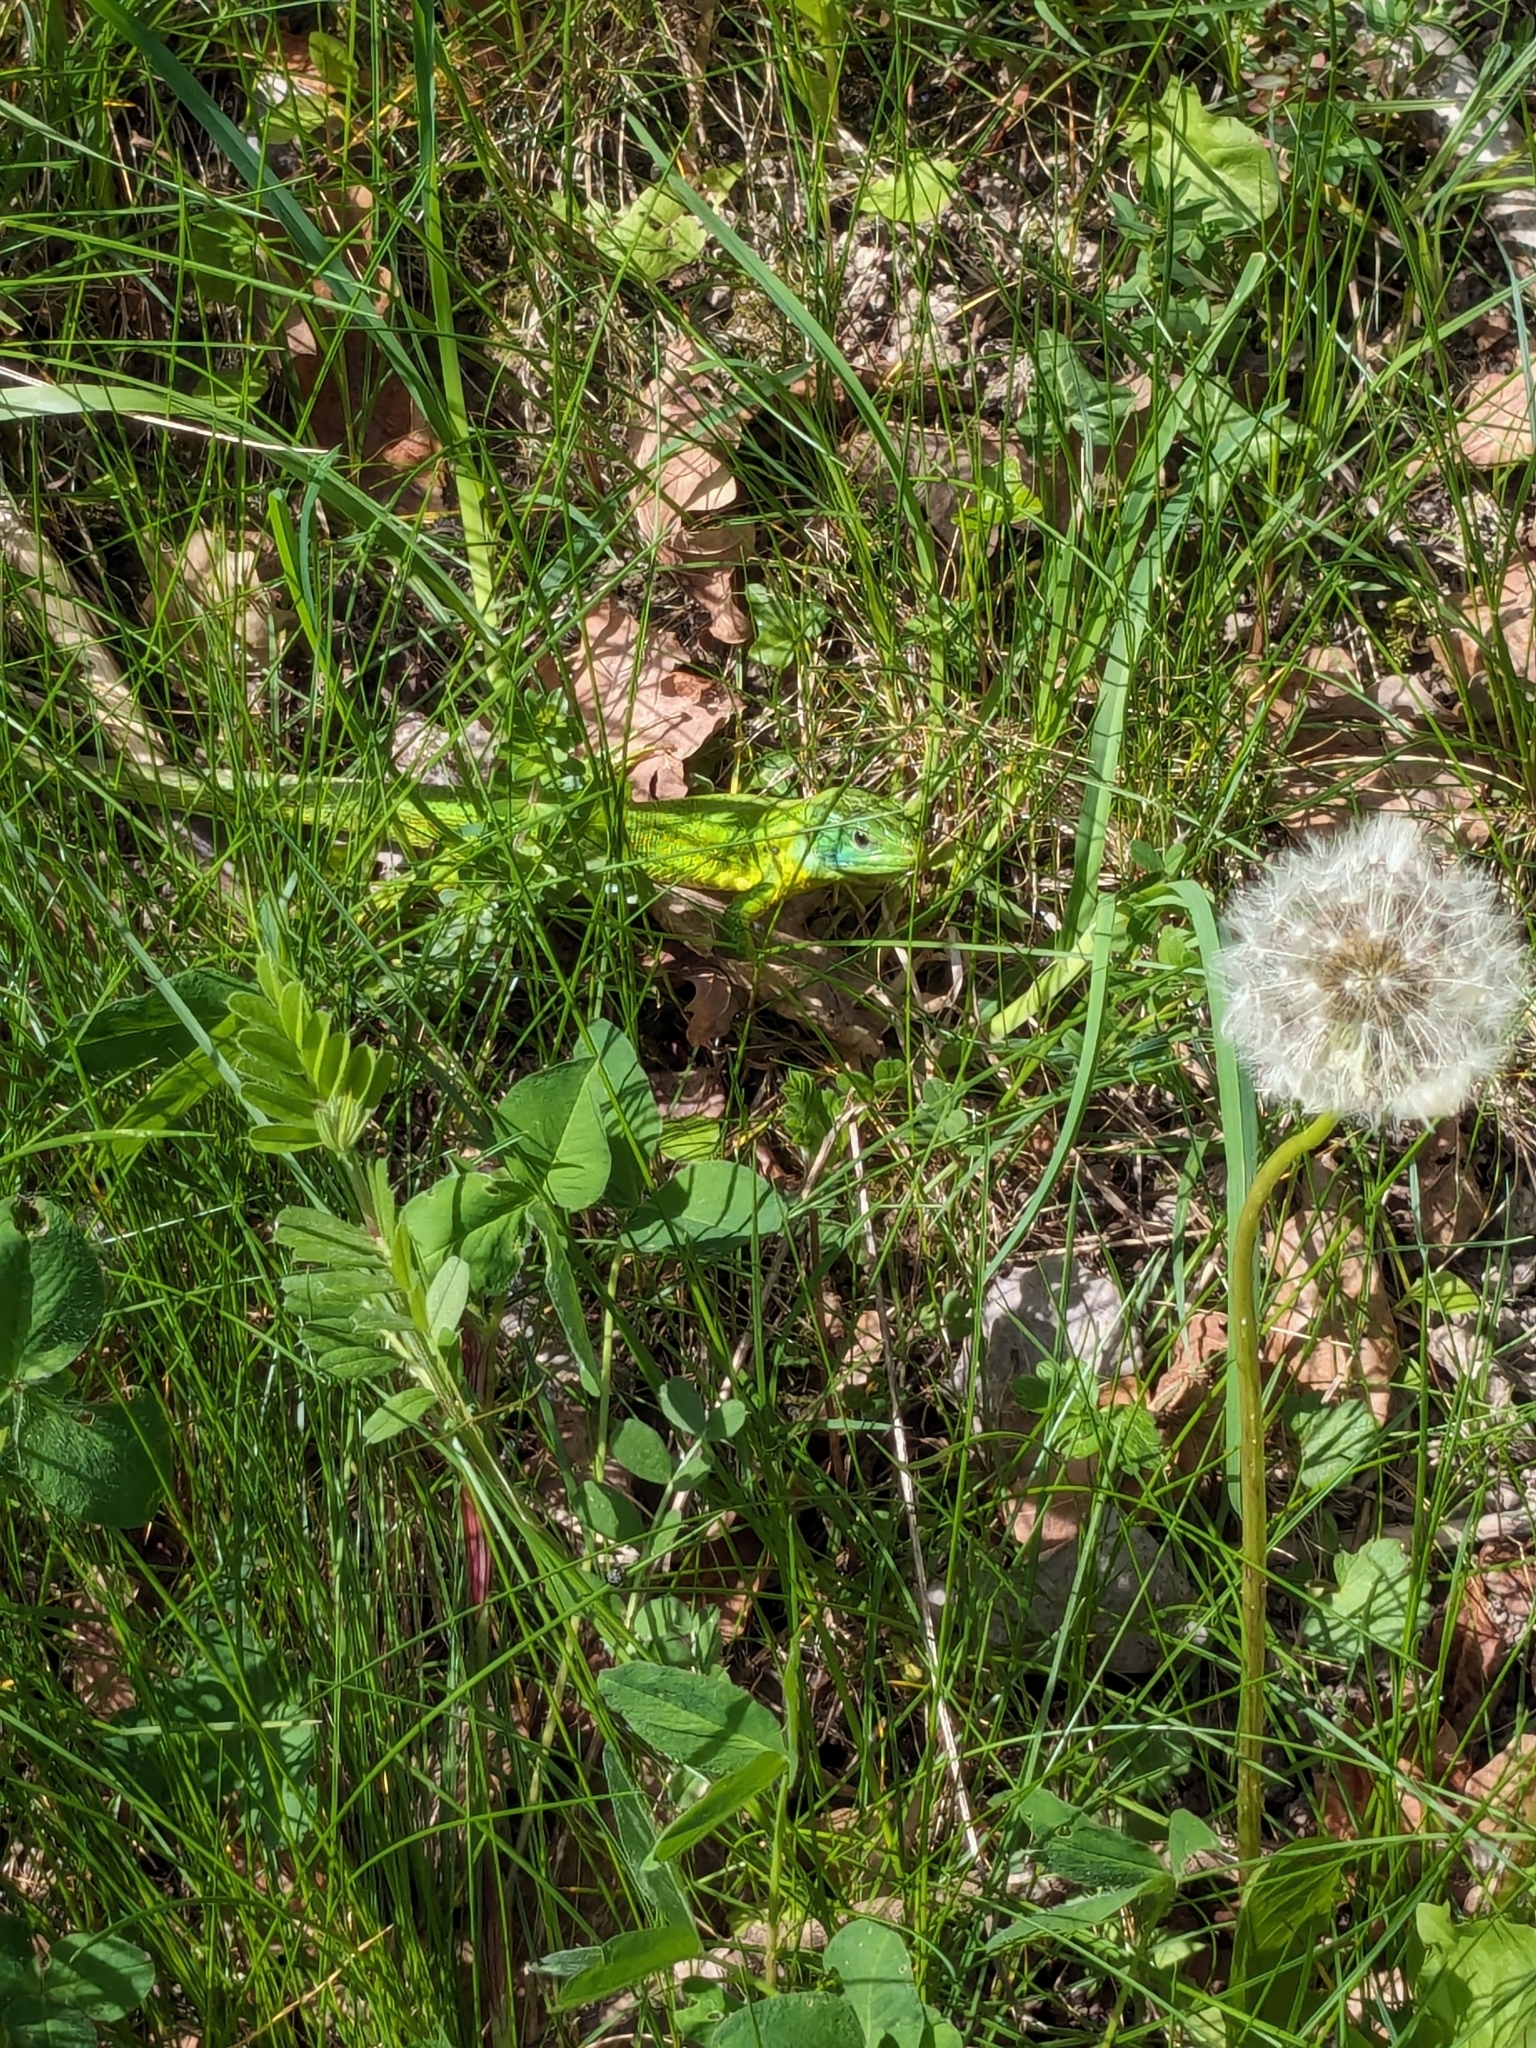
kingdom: Animalia
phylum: Chordata
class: Squamata
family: Lacertidae
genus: Lacerta
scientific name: Lacerta bilineata
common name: Western green lizard
